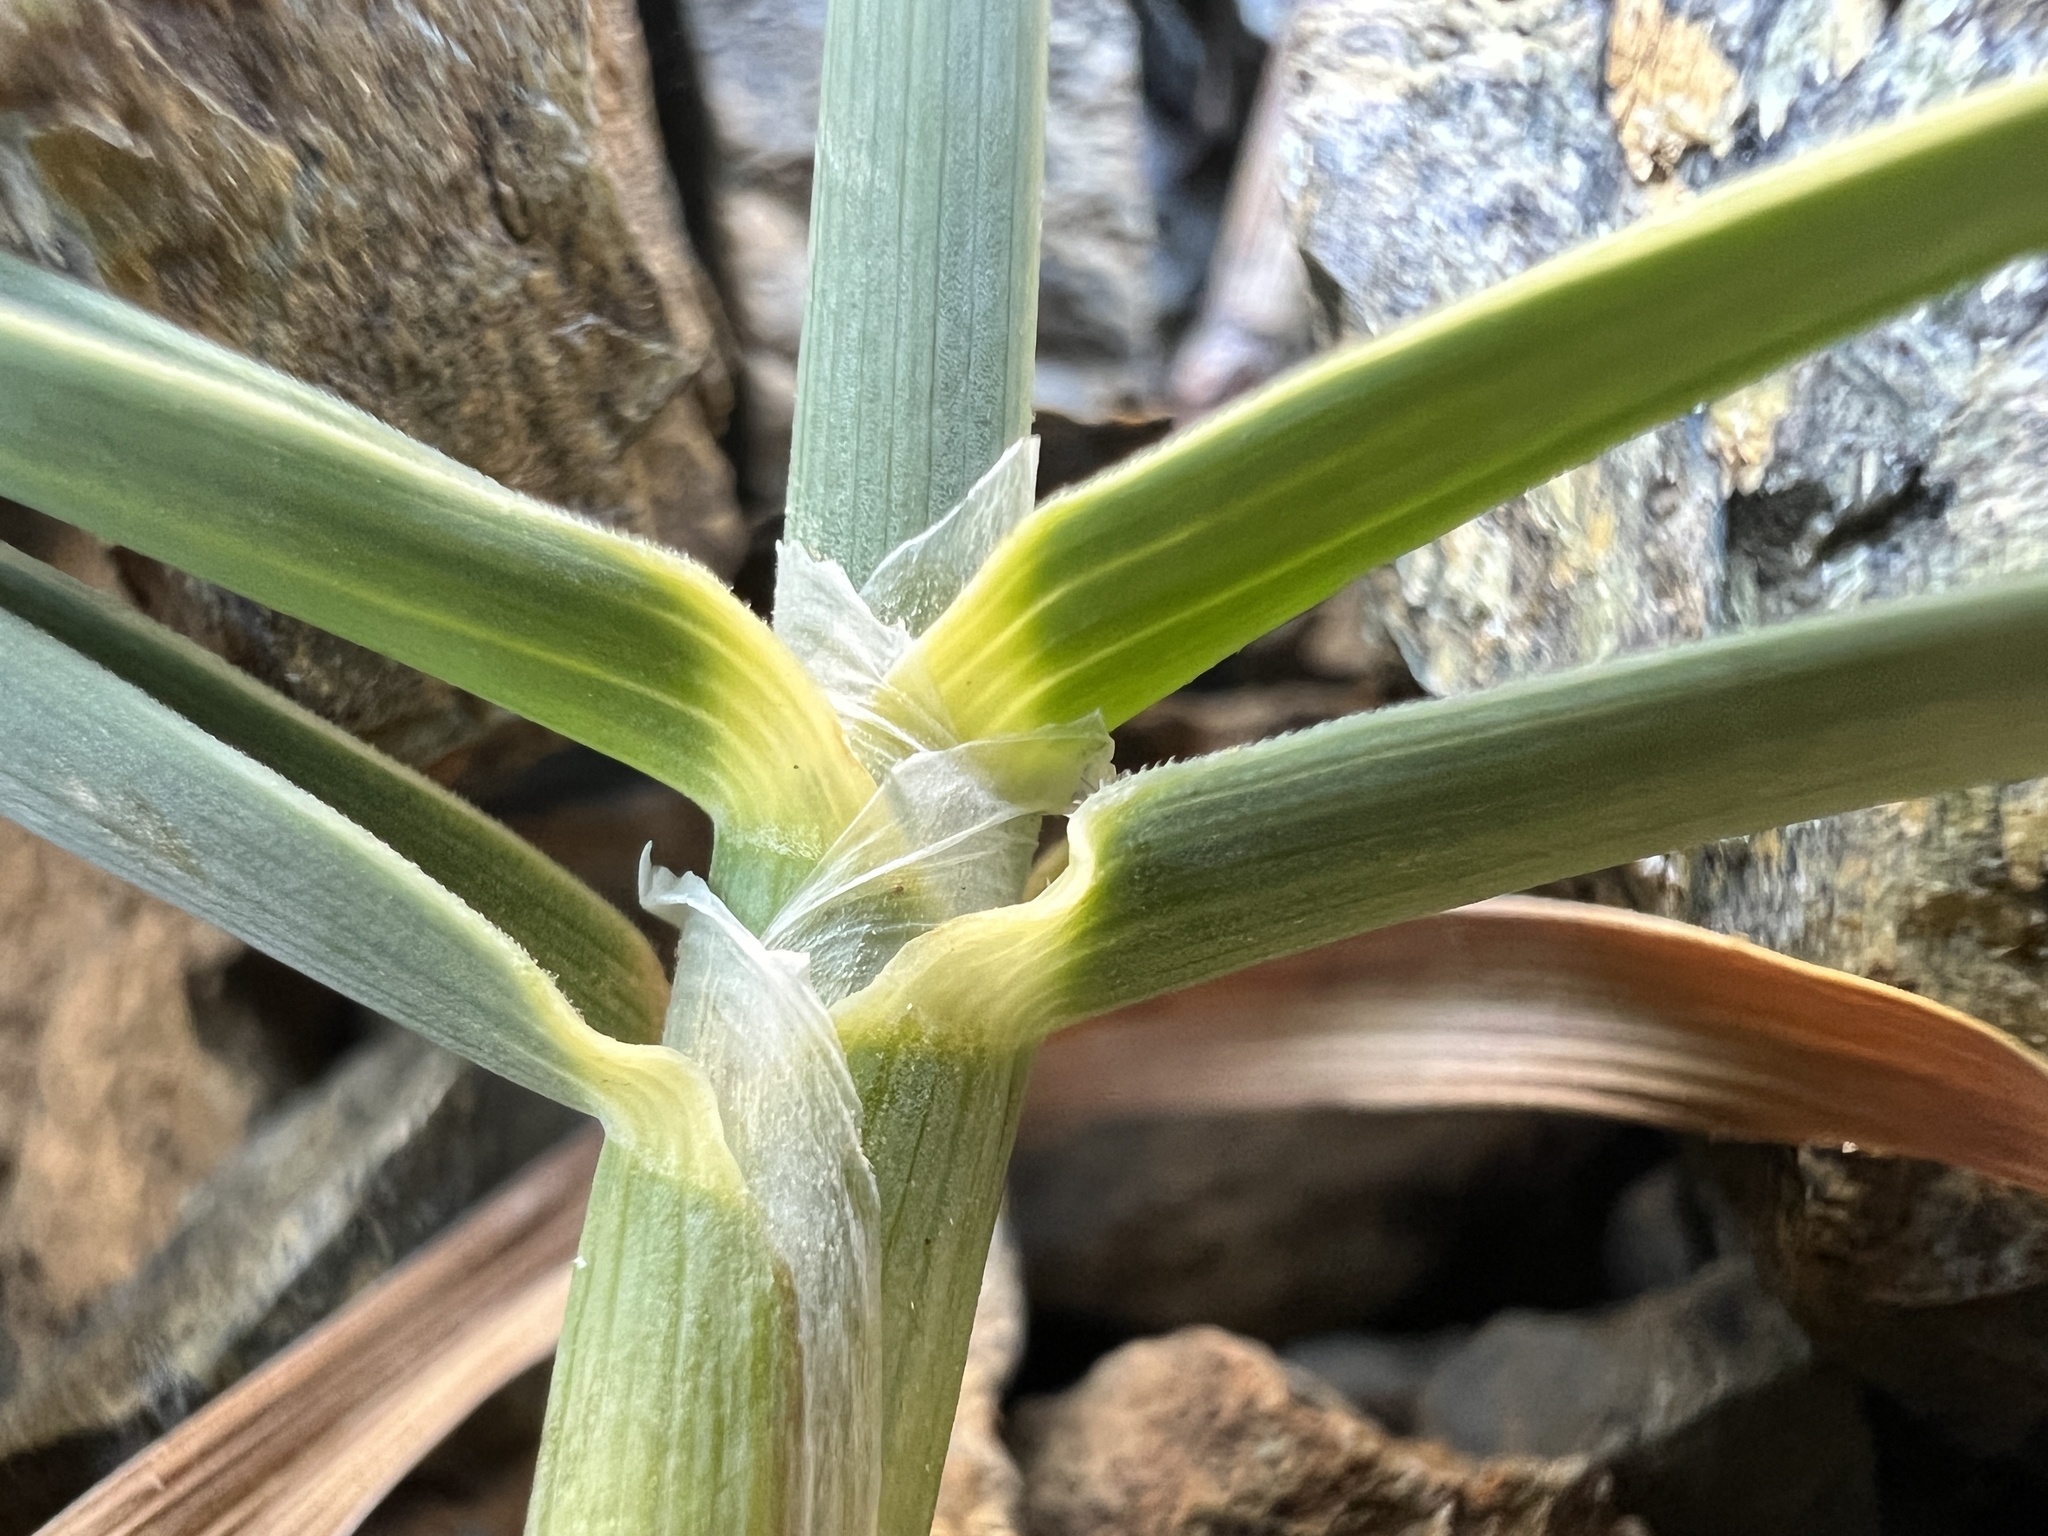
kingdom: Plantae
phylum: Tracheophyta
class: Liliopsida
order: Poales
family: Poaceae
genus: Poa
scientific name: Poa curtifolia
